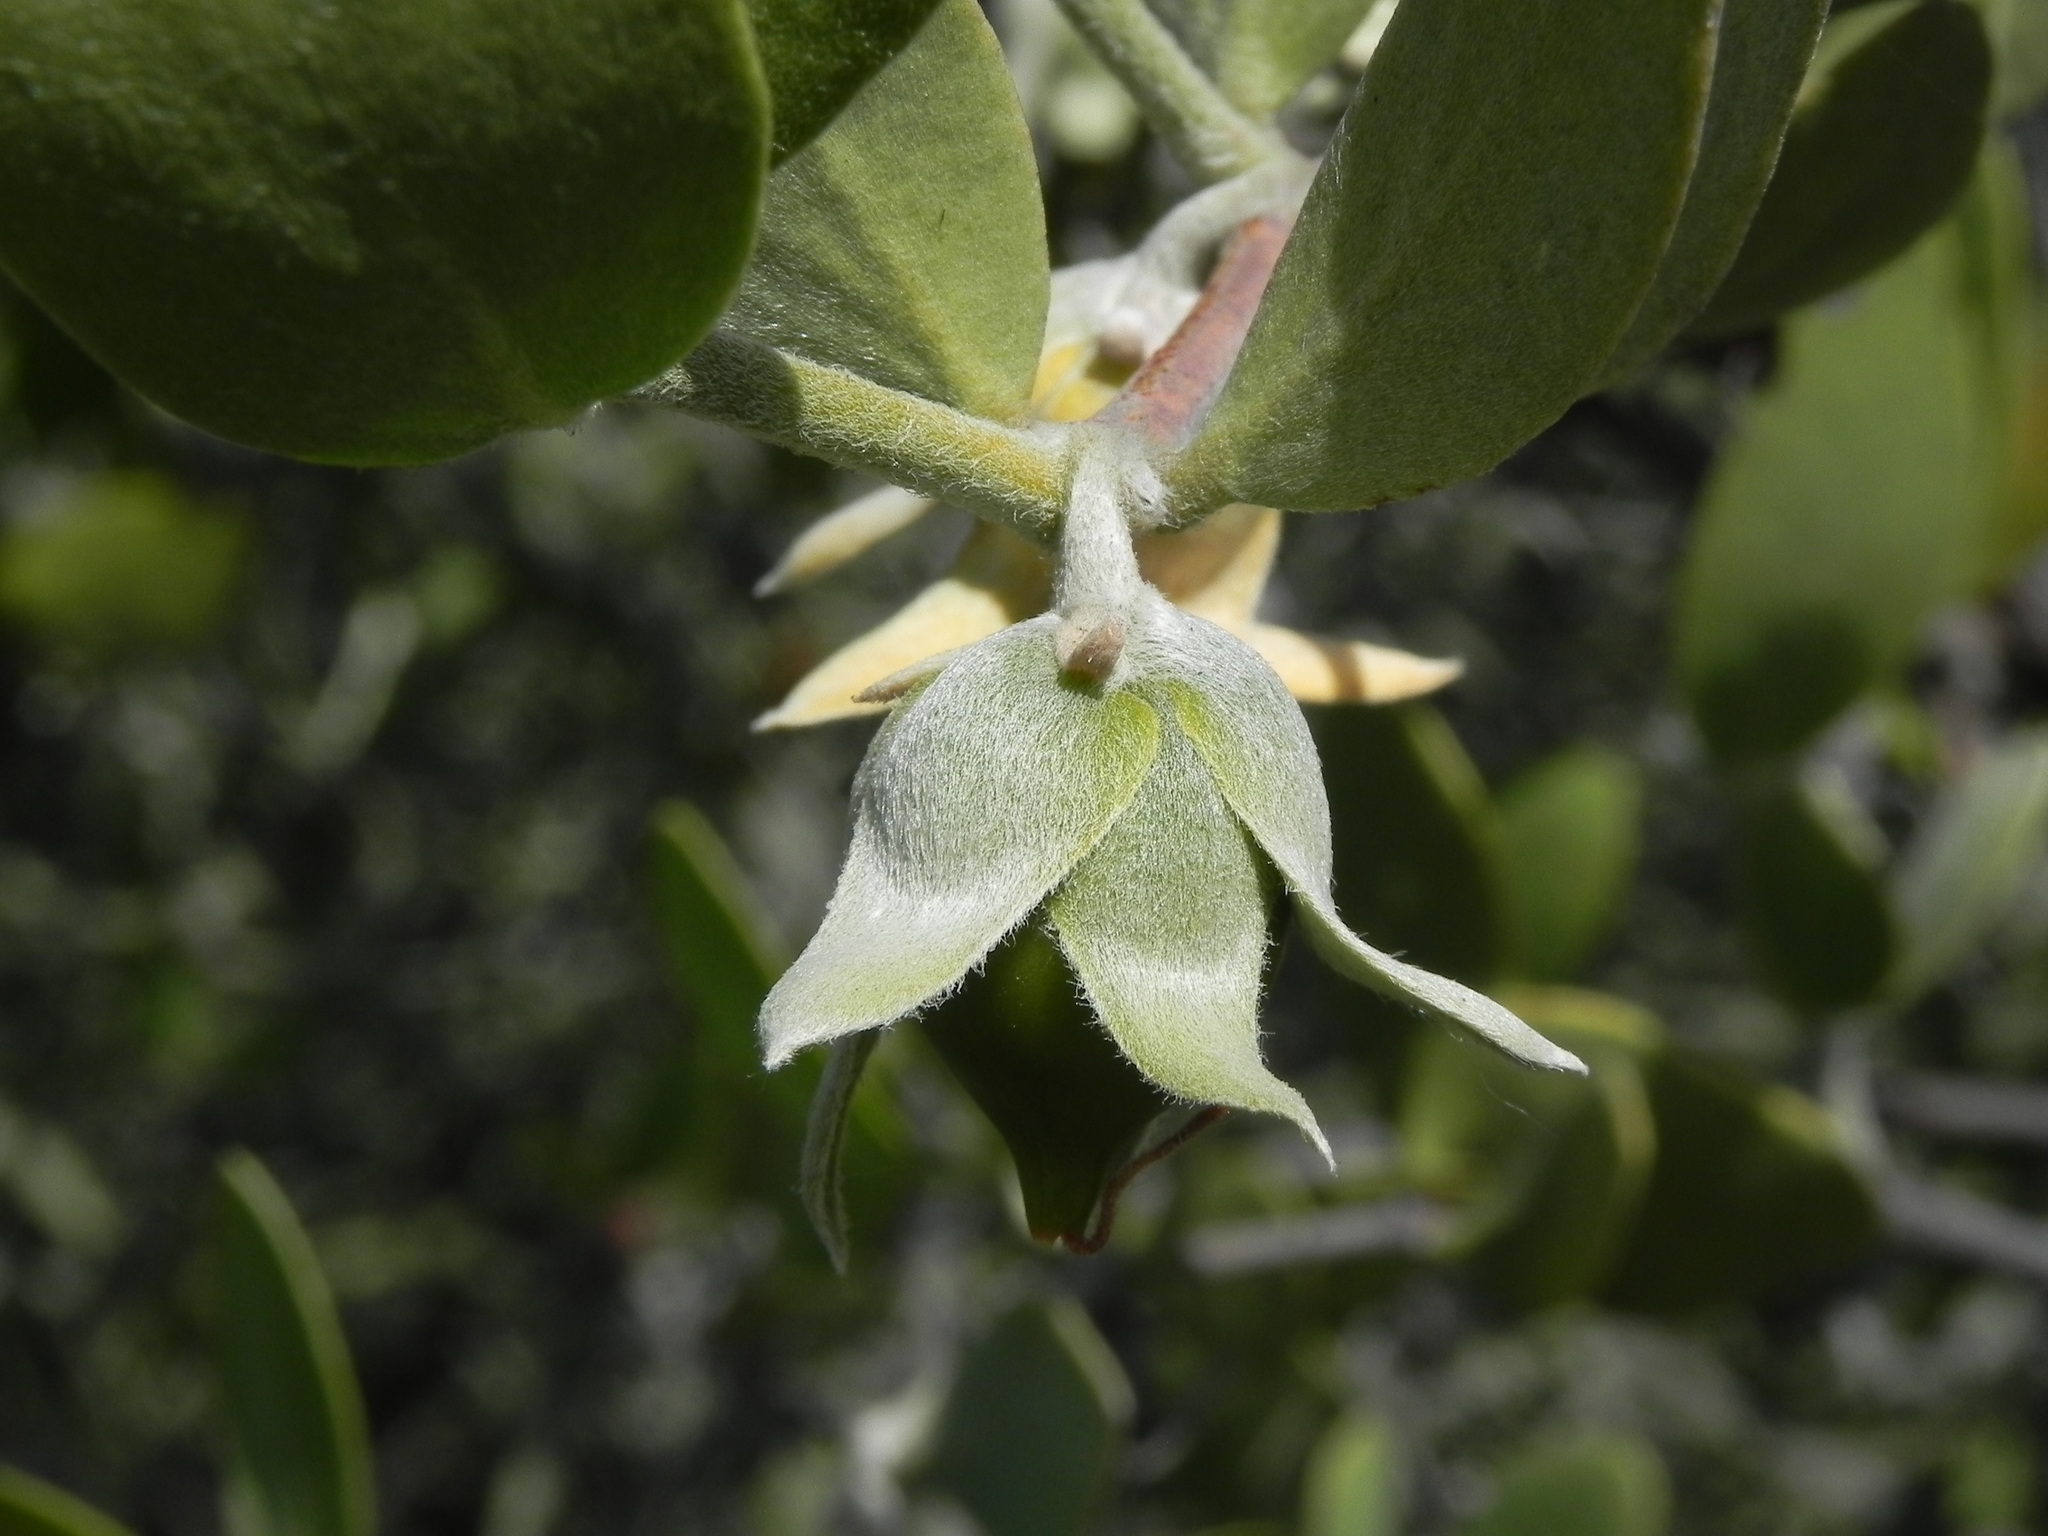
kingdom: Plantae
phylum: Tracheophyta
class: Magnoliopsida
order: Caryophyllales
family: Simmondsiaceae
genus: Simmondsia
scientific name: Simmondsia chinensis
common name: Jojoba
